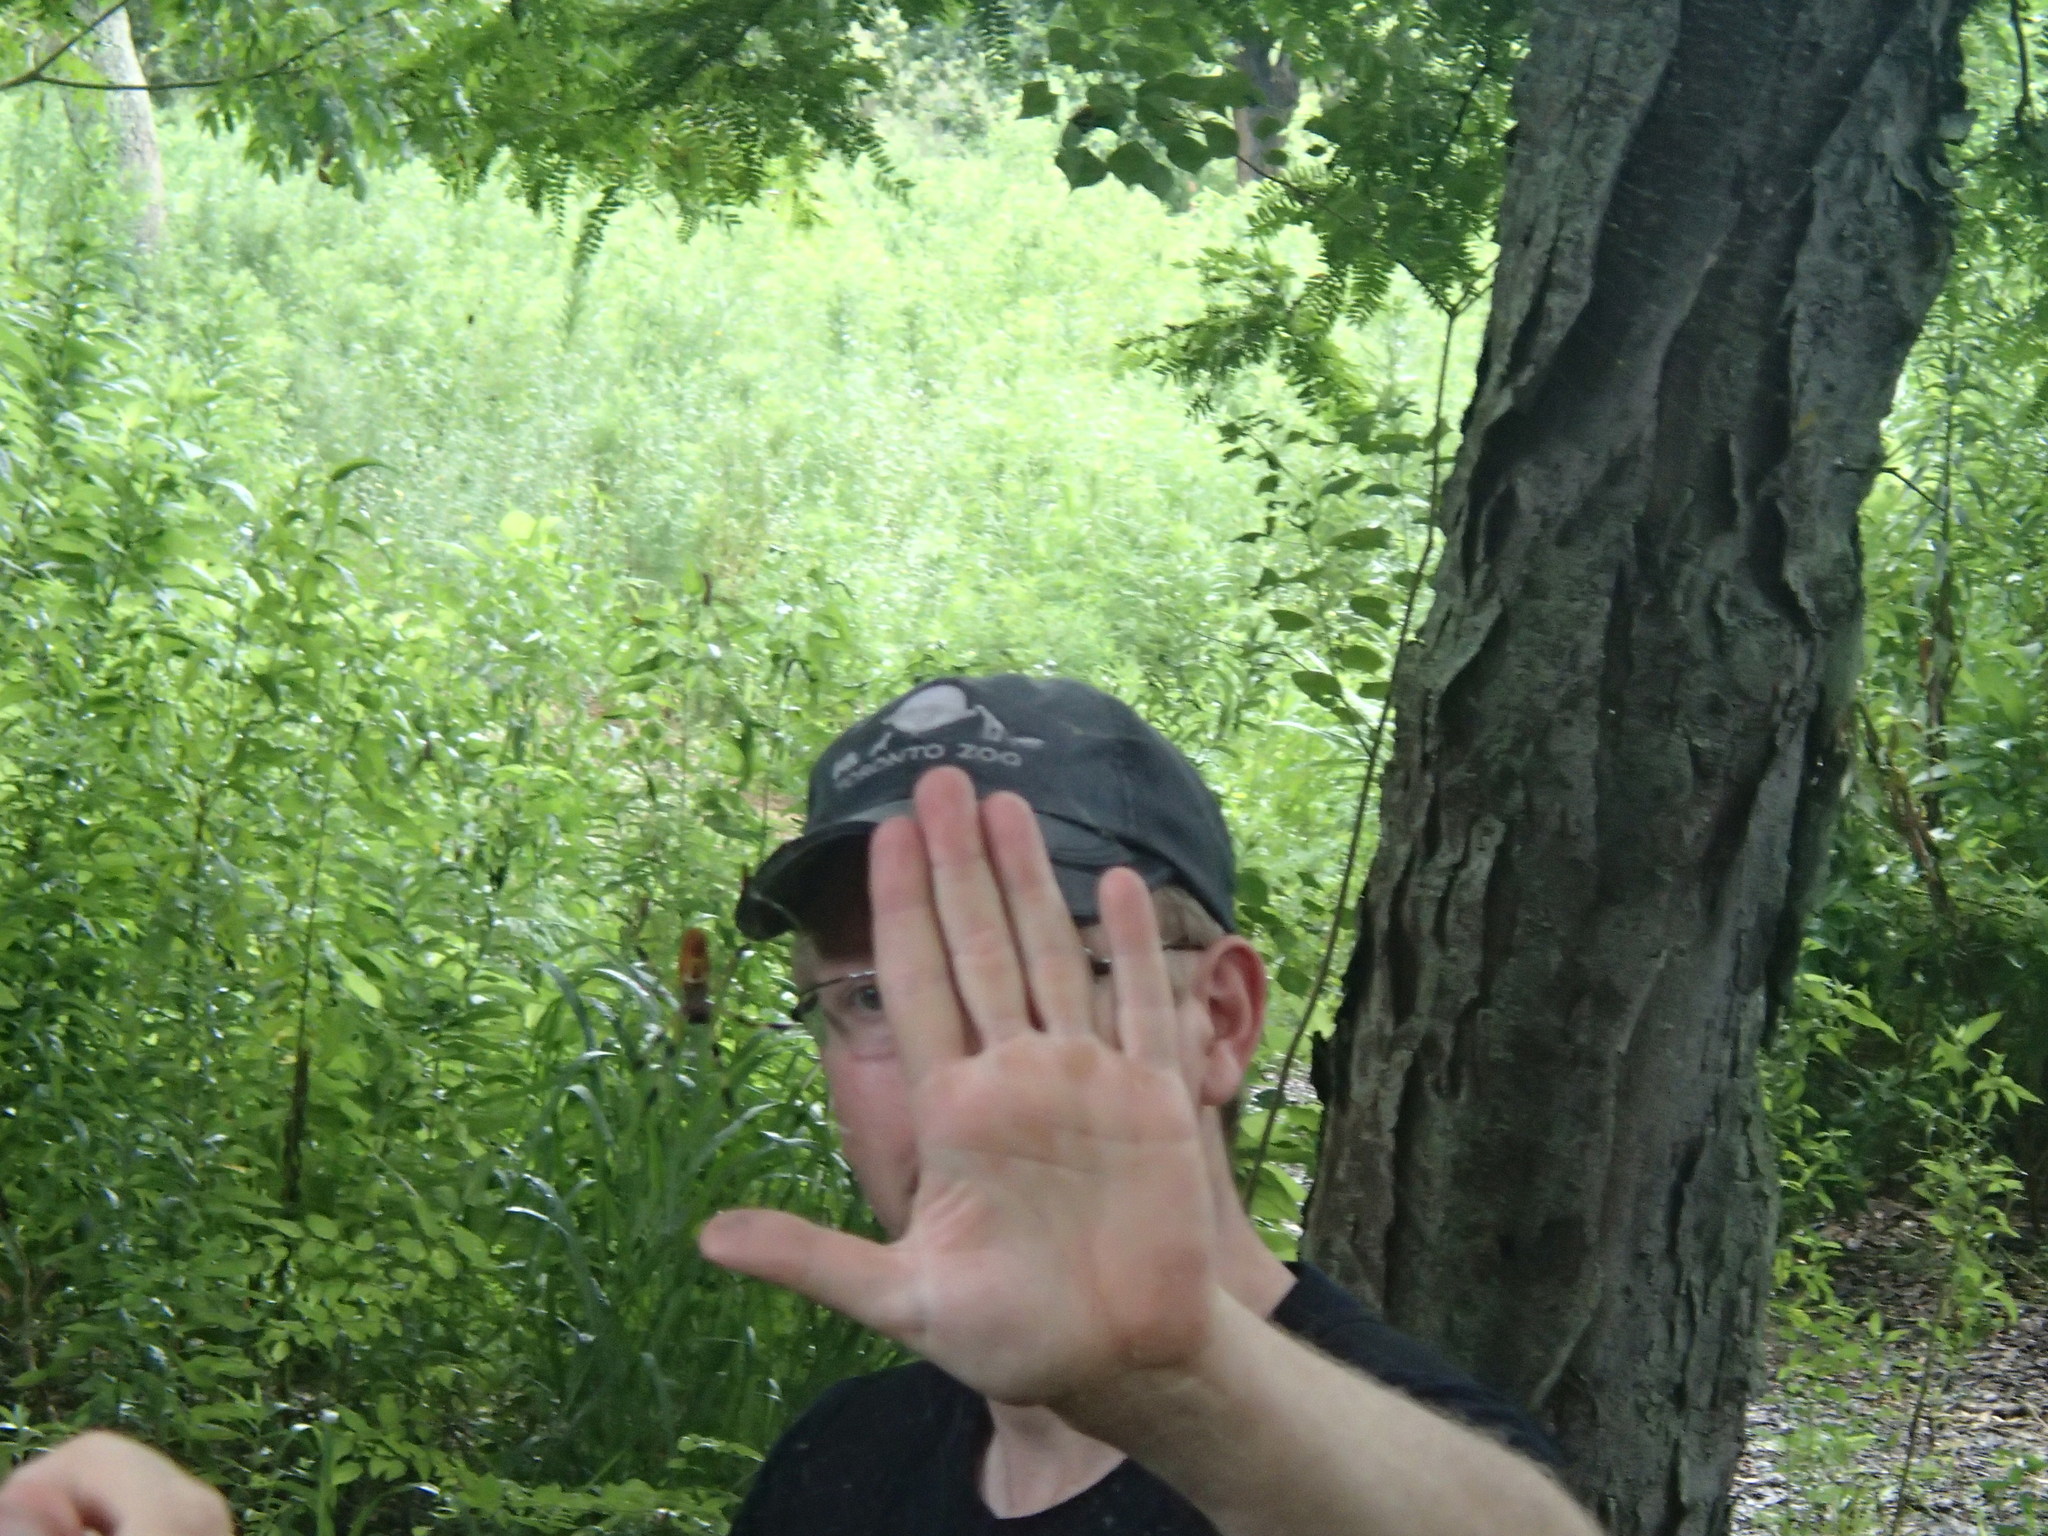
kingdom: Animalia
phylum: Arthropoda
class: Arachnida
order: Araneae
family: Araneidae
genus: Trichonephila
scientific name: Trichonephila clavipes
